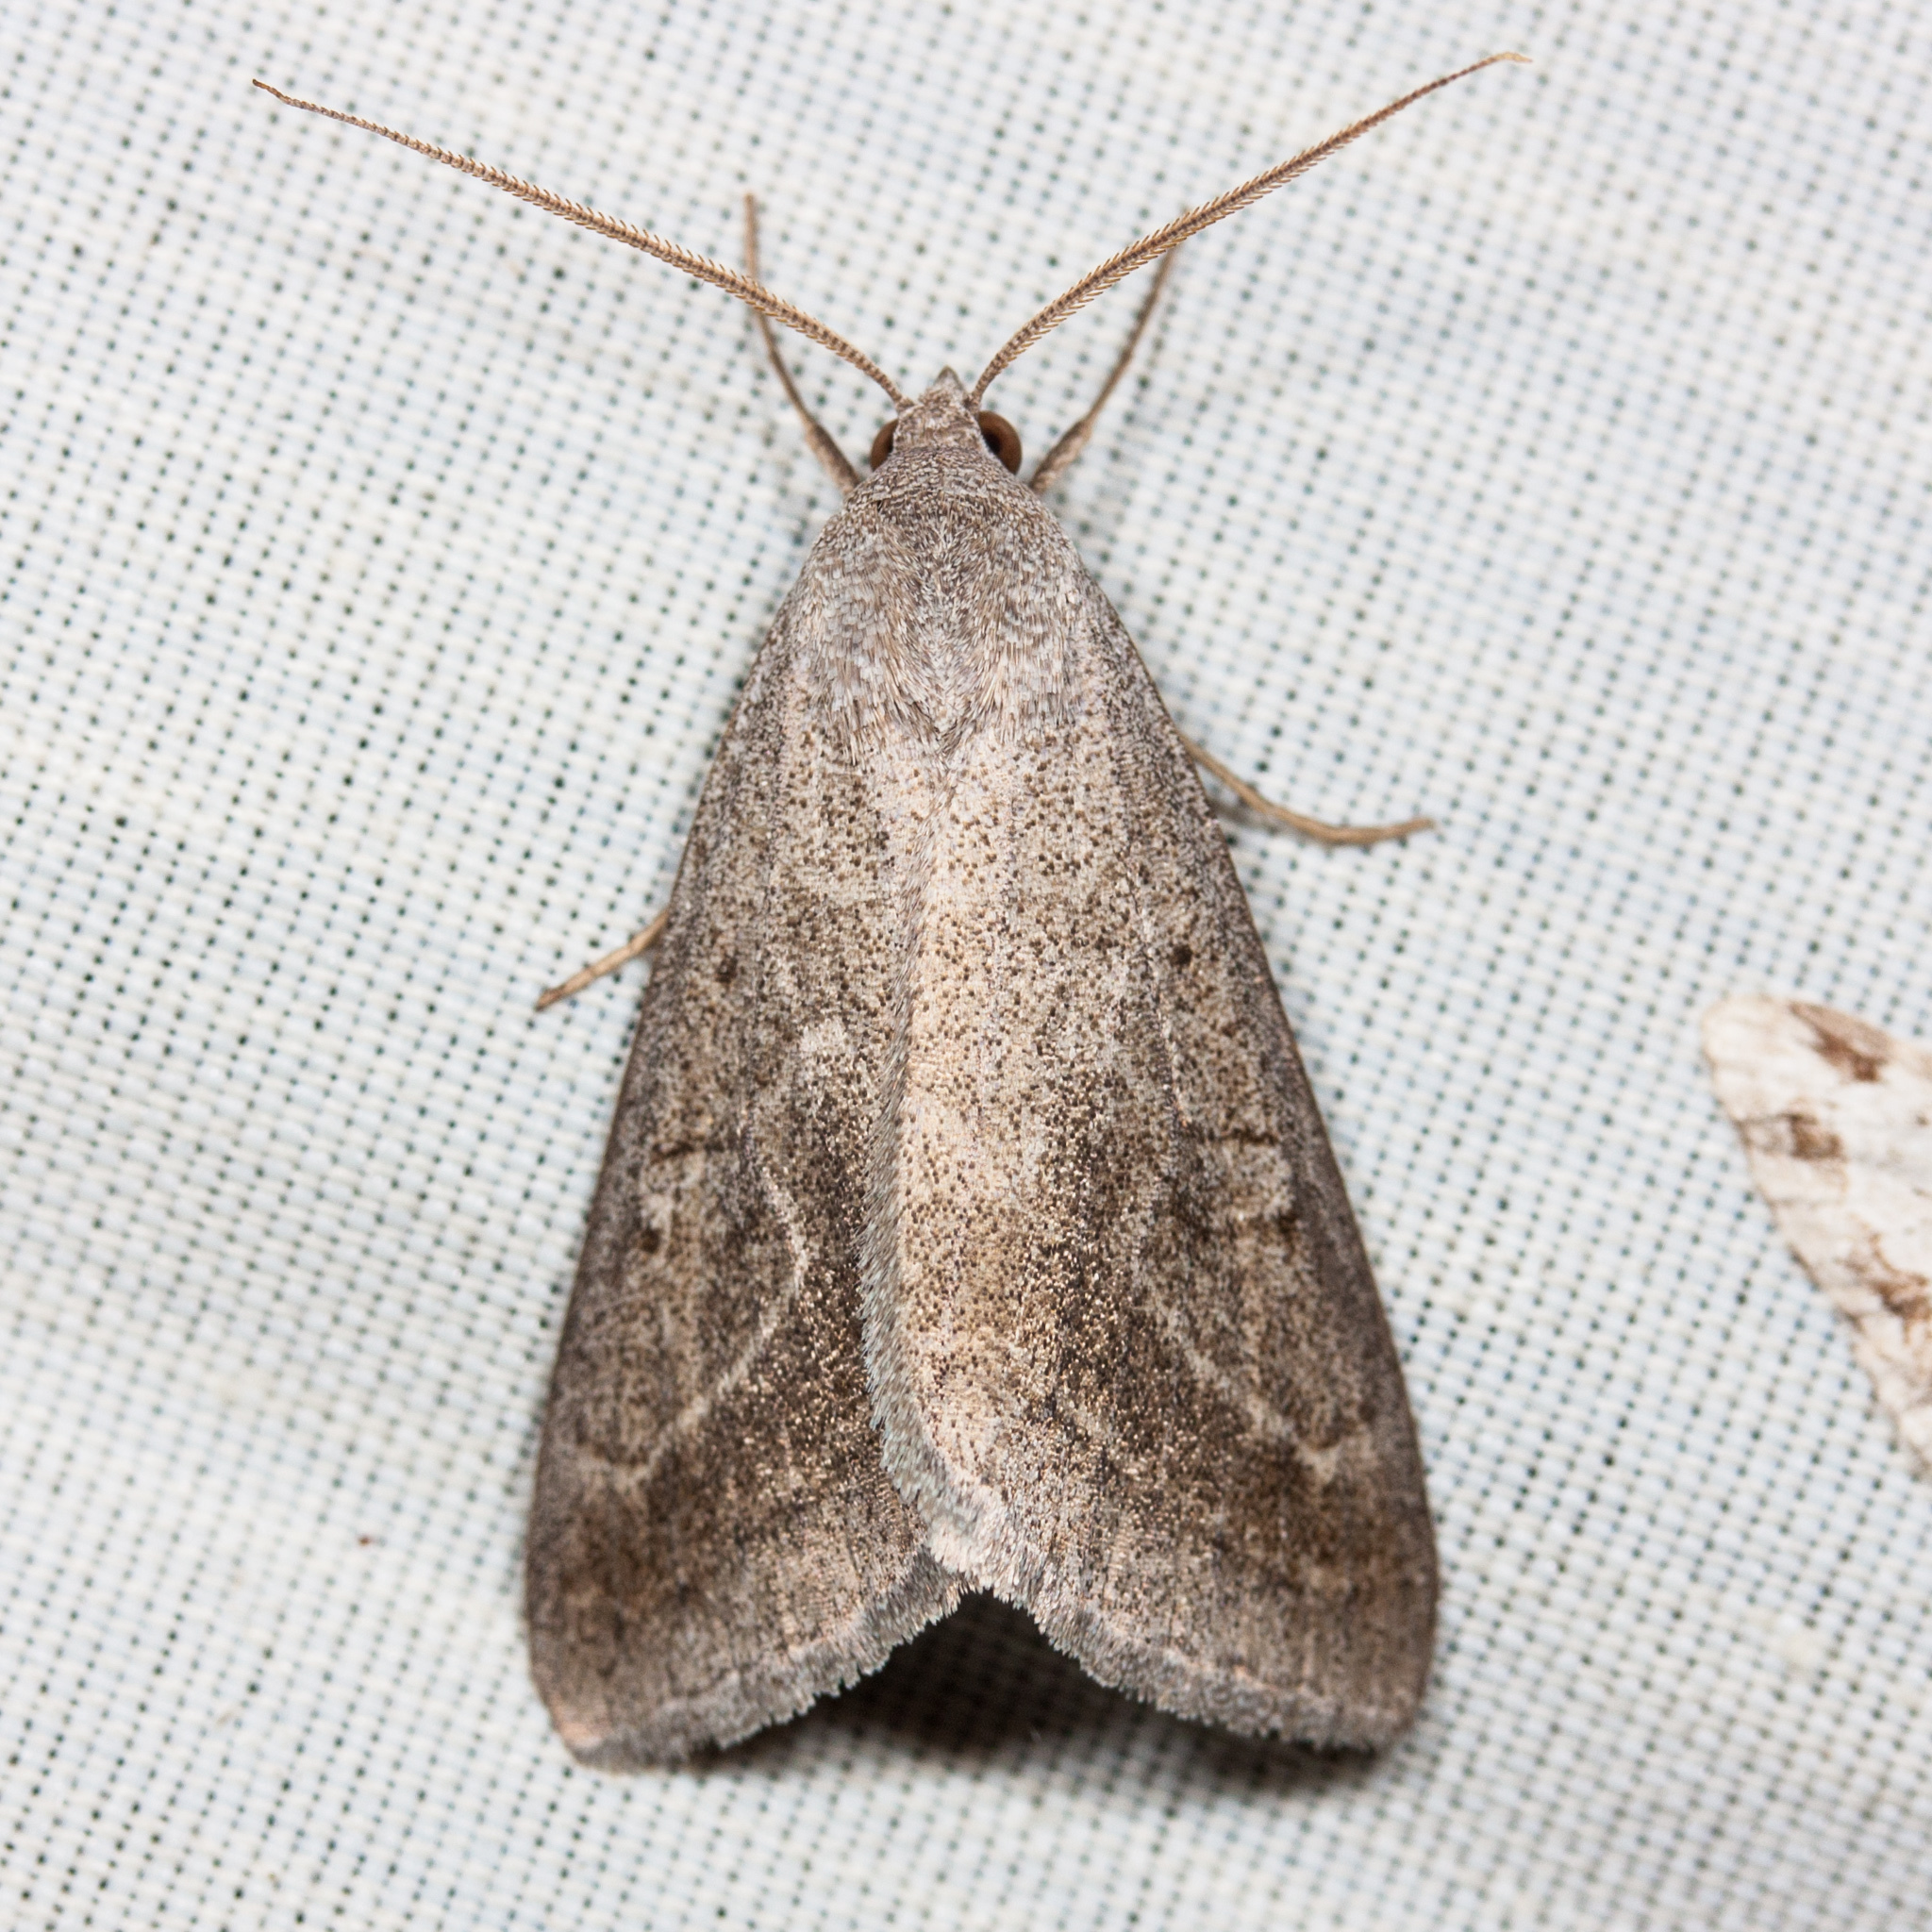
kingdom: Animalia
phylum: Arthropoda
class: Insecta
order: Lepidoptera
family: Erebidae
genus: Caenurgia
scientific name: Caenurgia togataria
